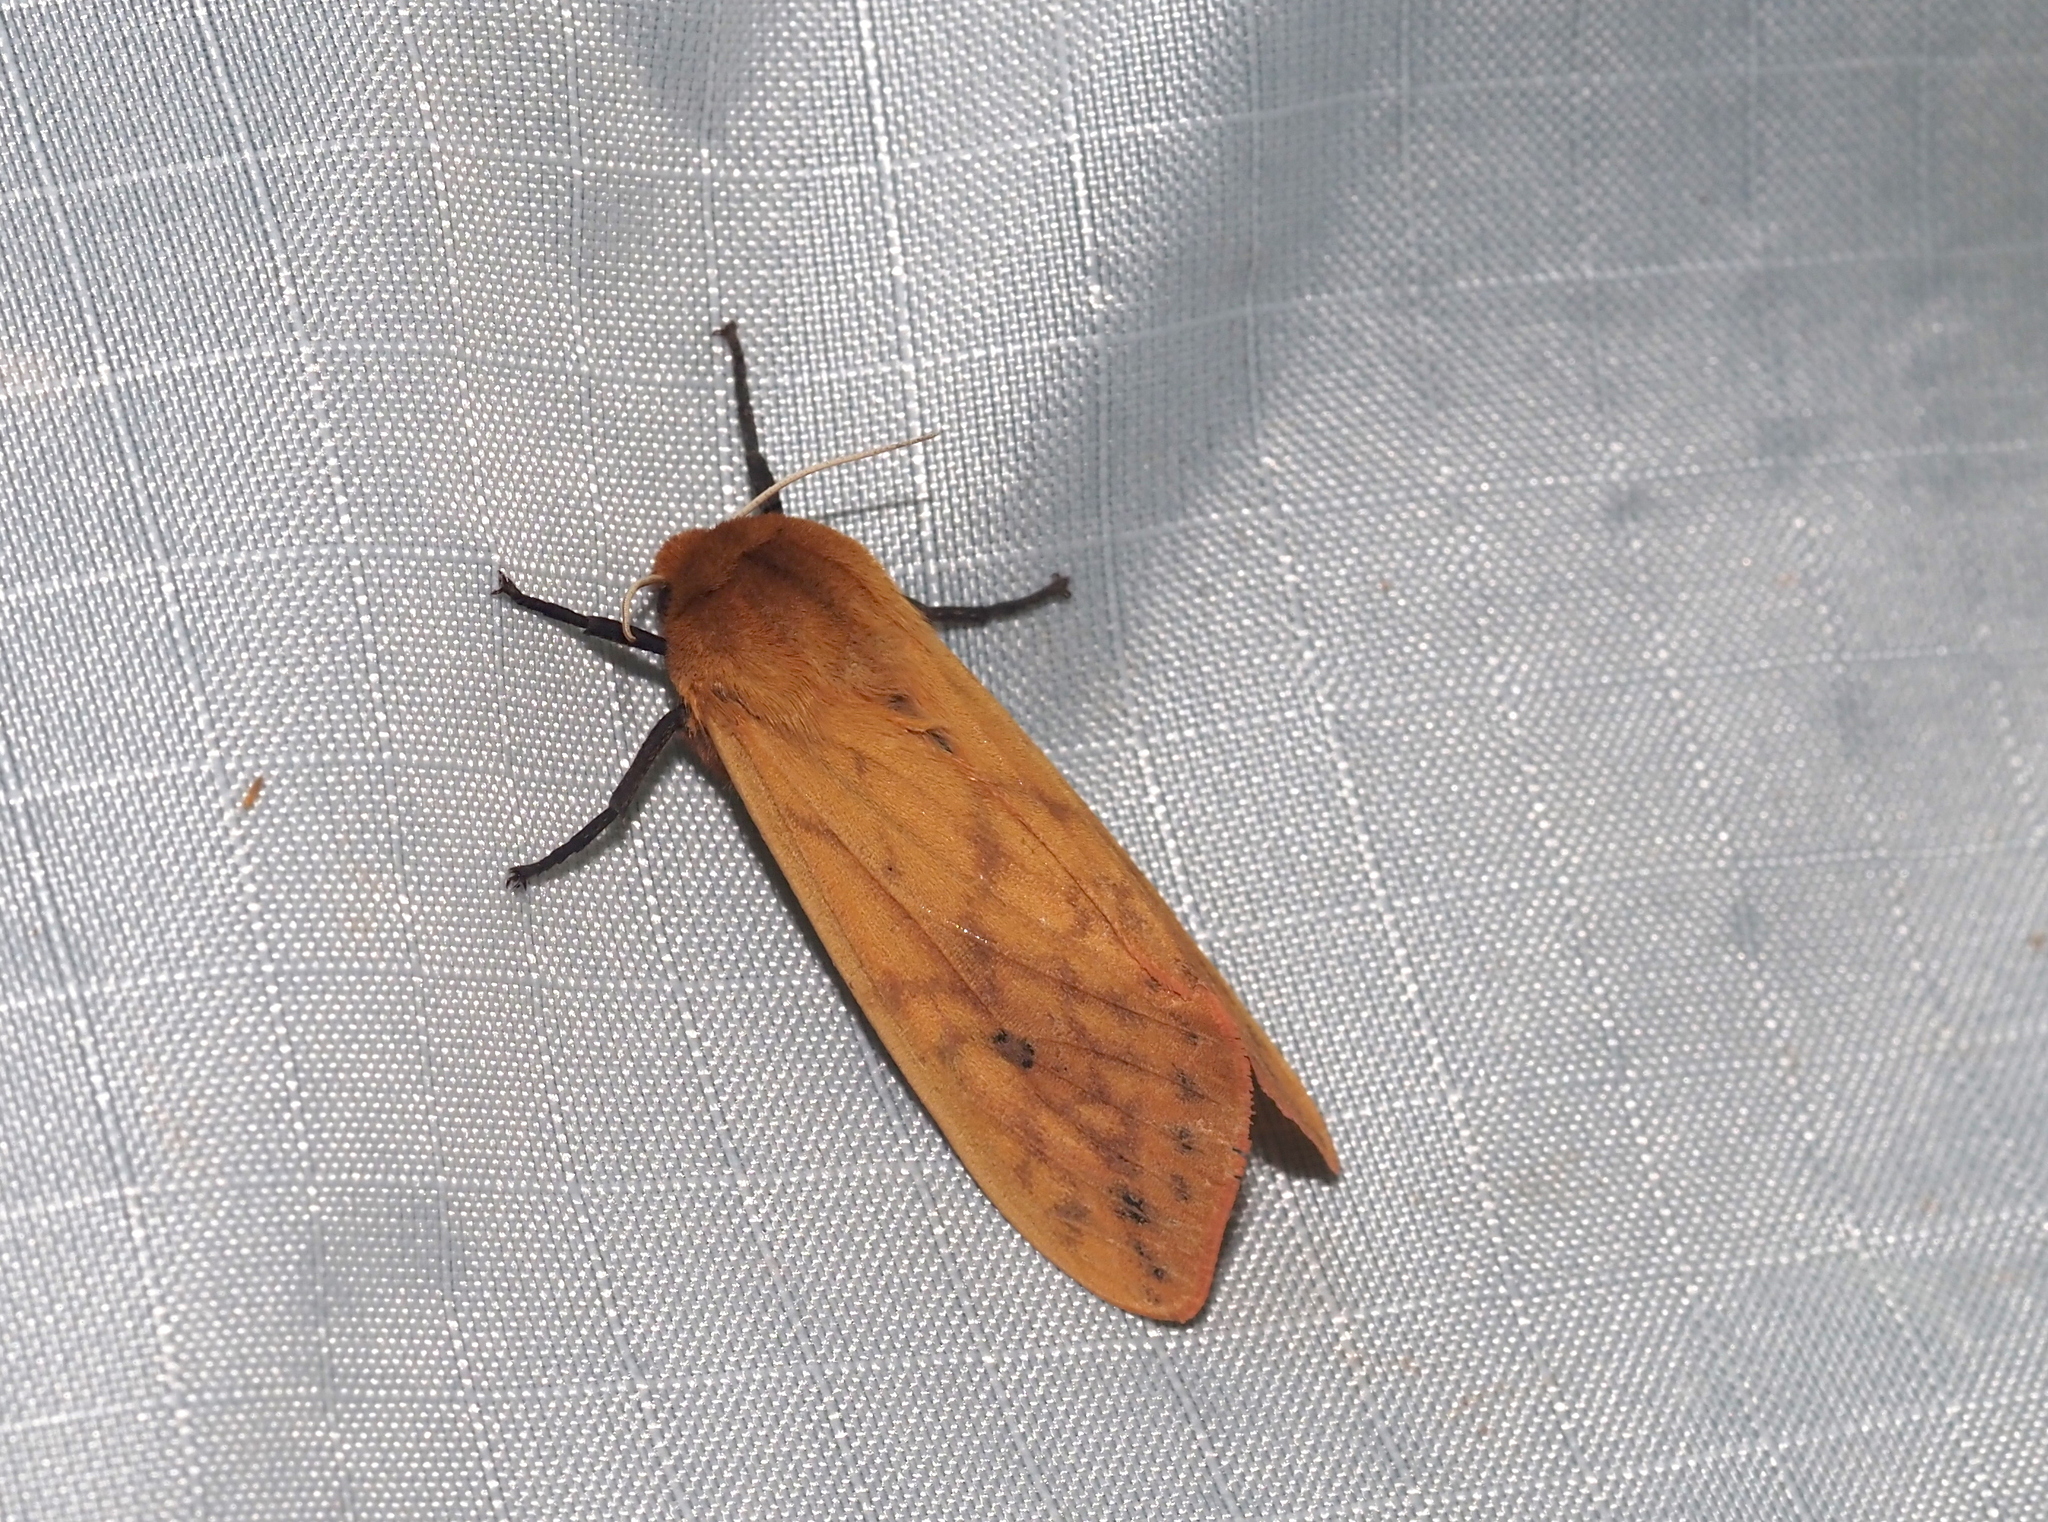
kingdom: Animalia
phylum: Arthropoda
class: Insecta
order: Lepidoptera
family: Erebidae
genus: Pyrrharctia
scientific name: Pyrrharctia isabella
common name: Isabella tiger moth
